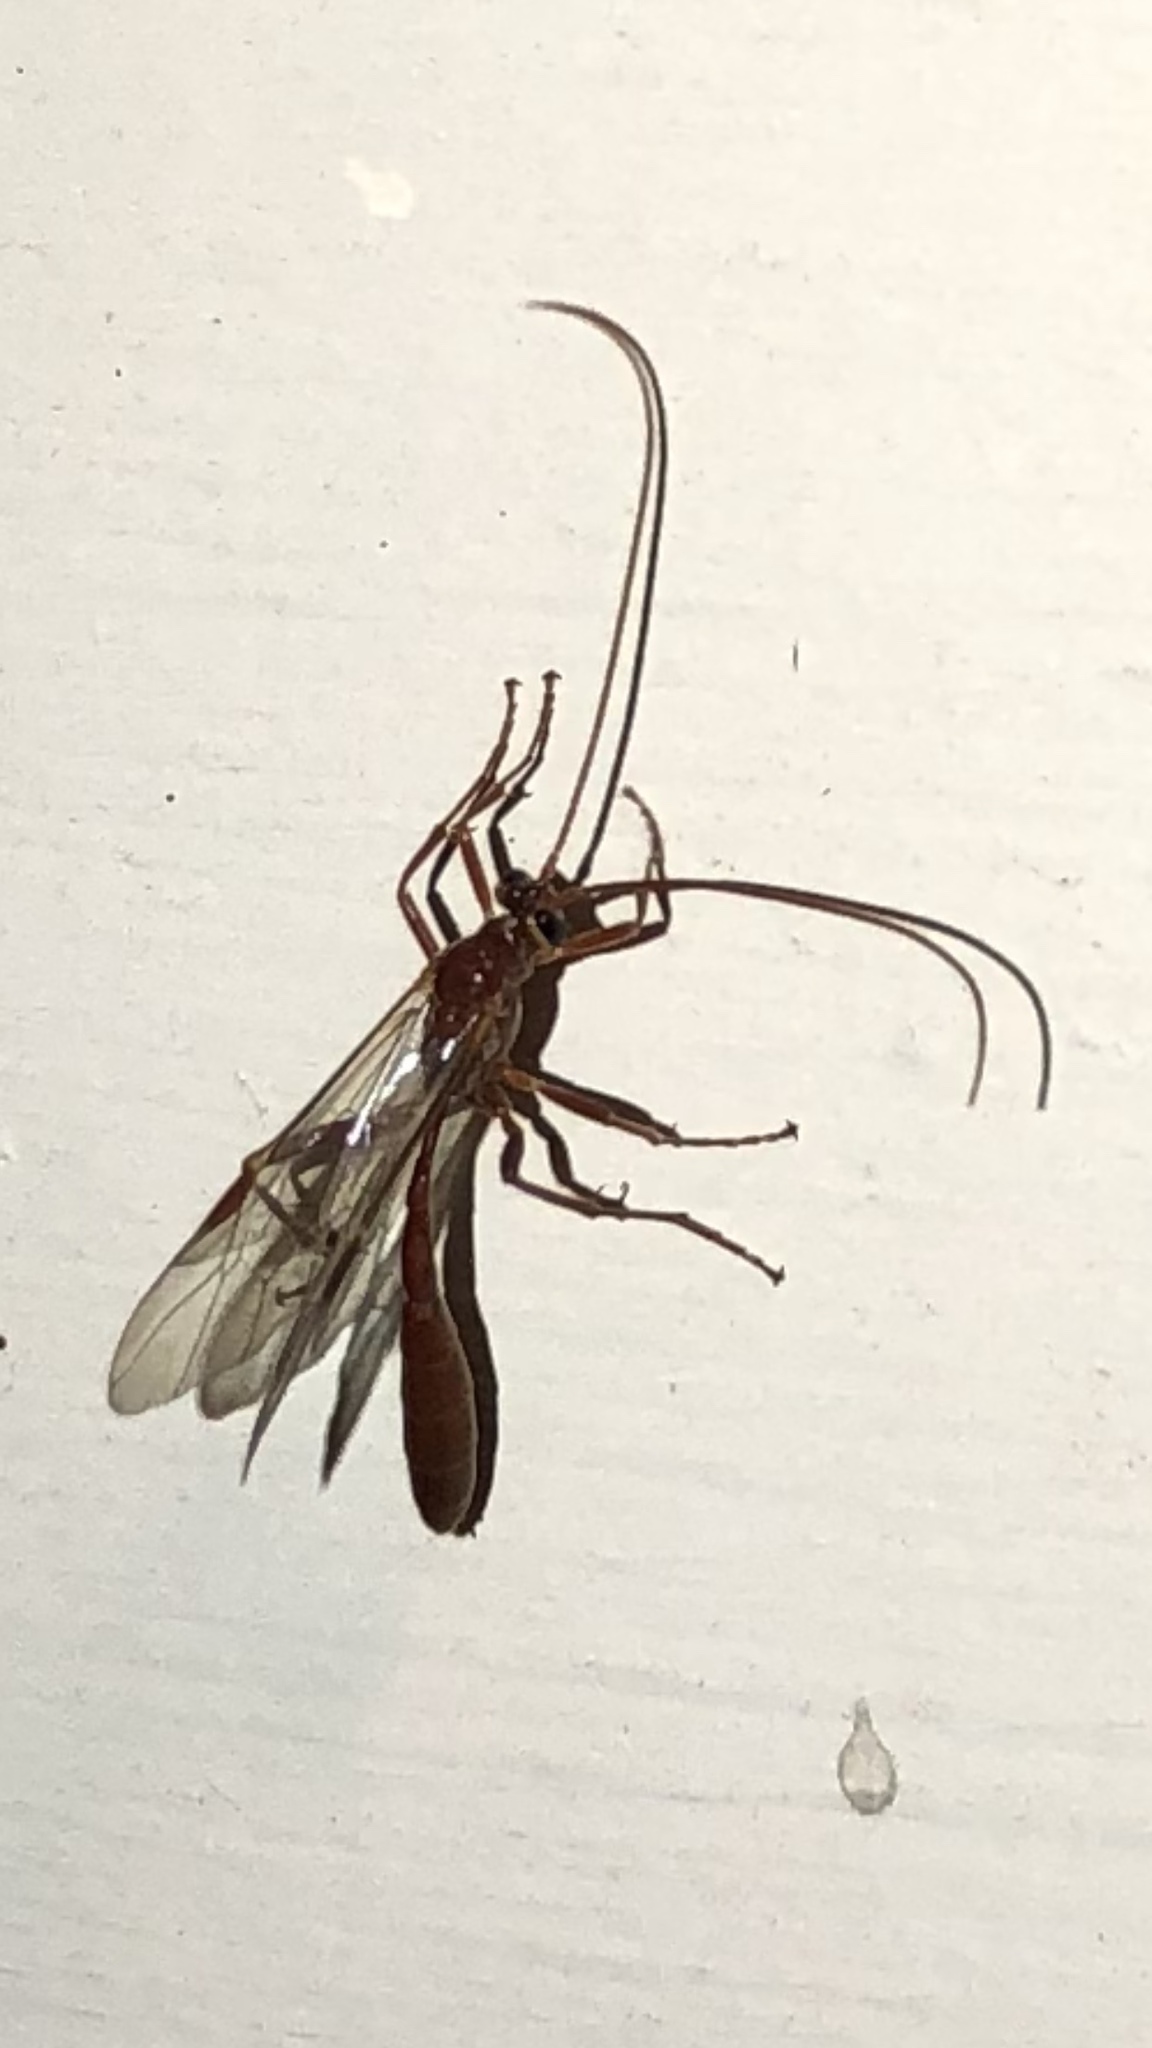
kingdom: Animalia
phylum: Arthropoda
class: Insecta
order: Hymenoptera
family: Ichneumonidae
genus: Ophion
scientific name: Ophion
